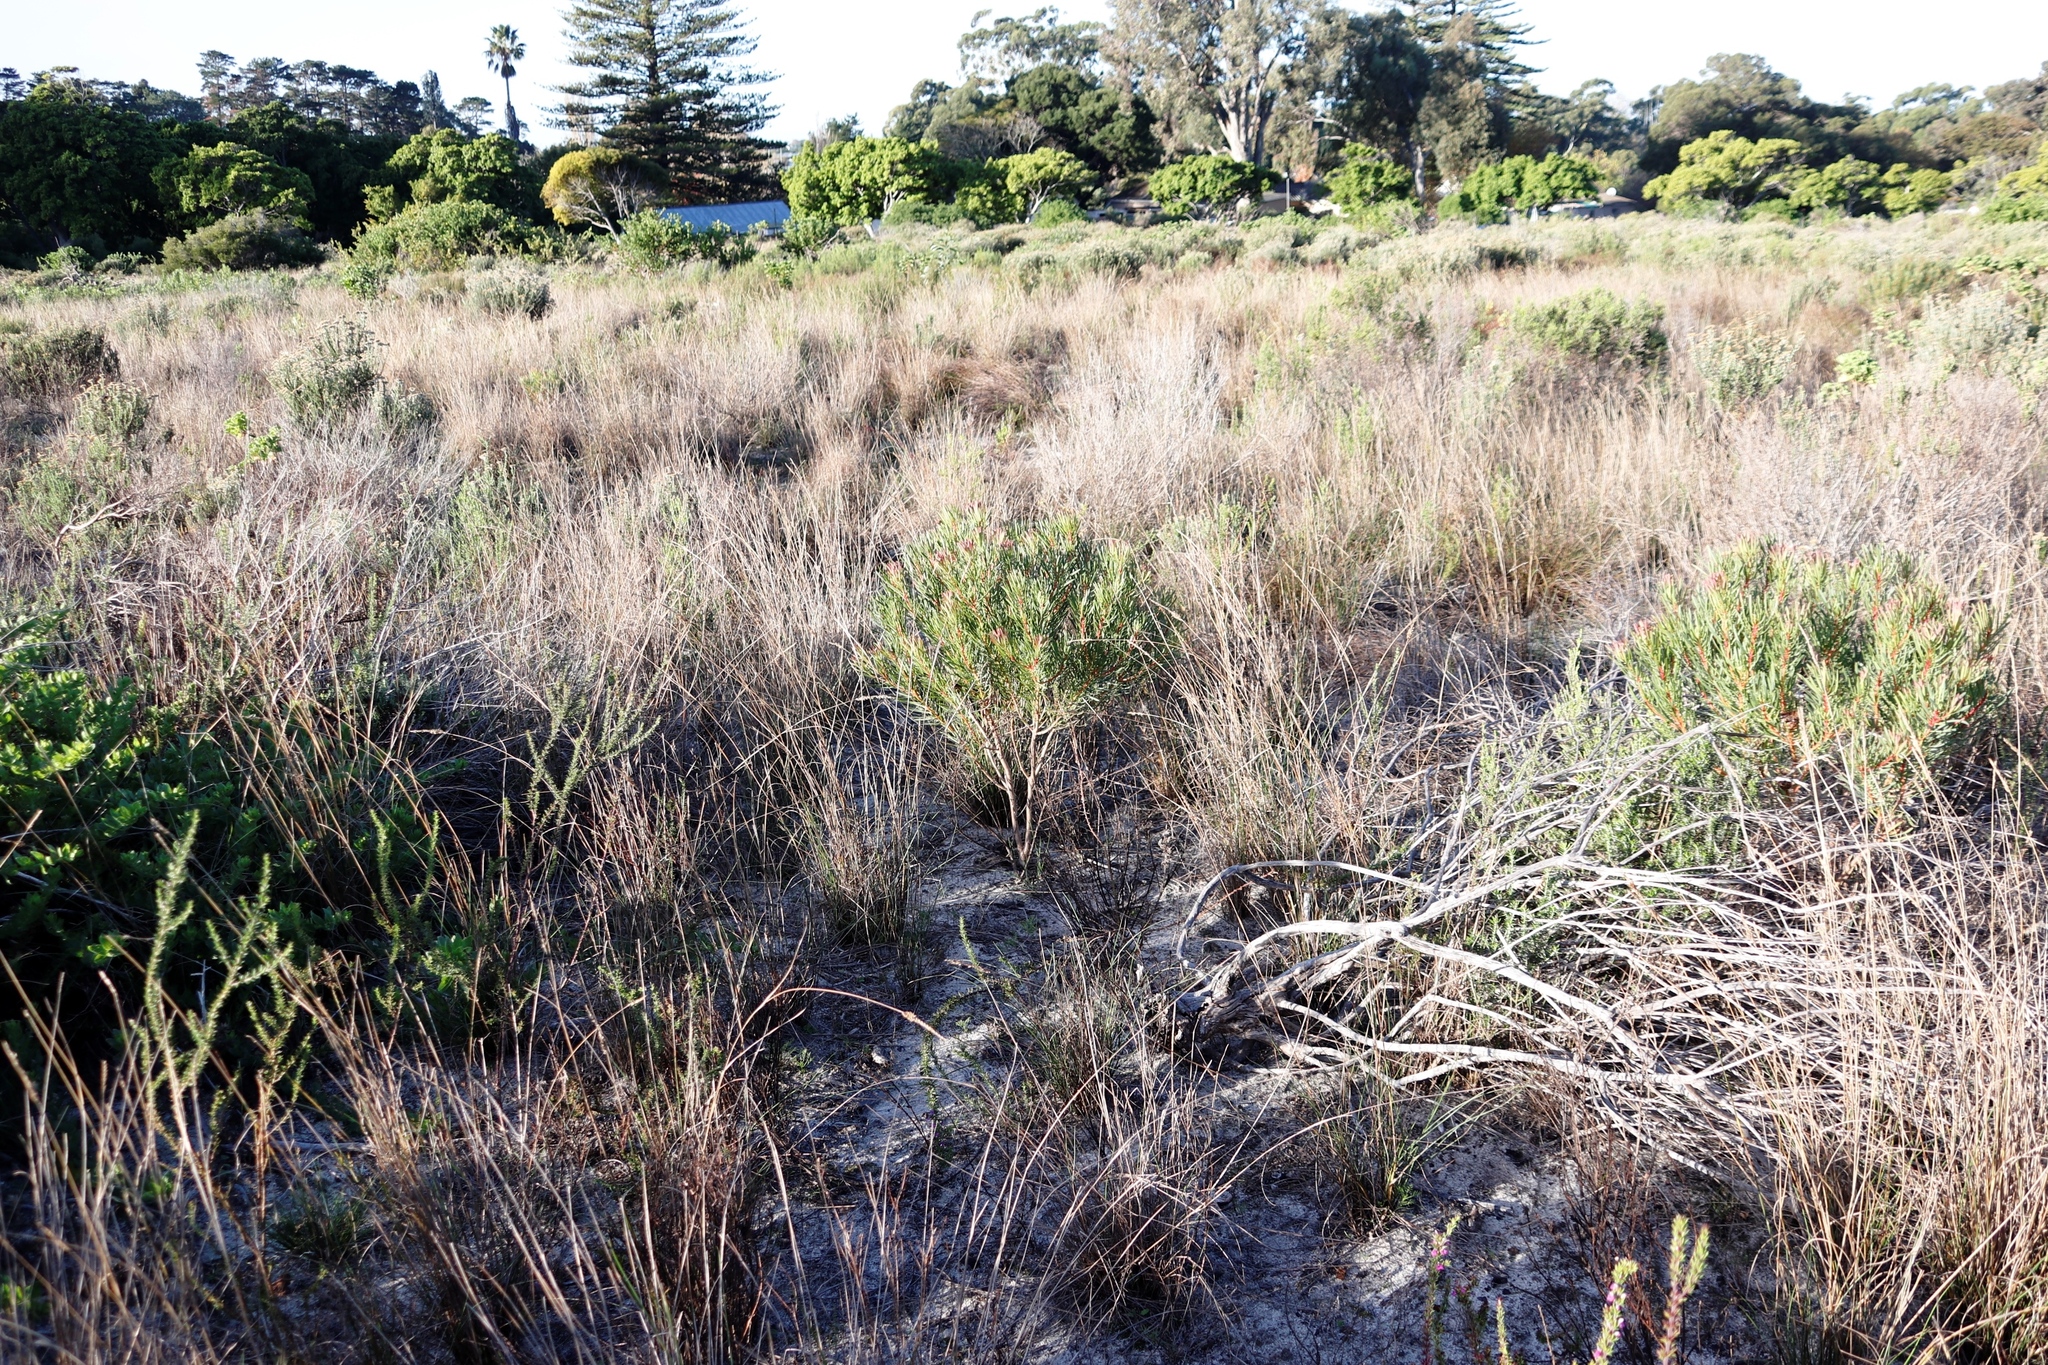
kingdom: Plantae
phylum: Tracheophyta
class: Magnoliopsida
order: Proteales
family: Proteaceae
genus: Protea
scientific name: Protea scolymocephala
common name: Thistle sugarbush
